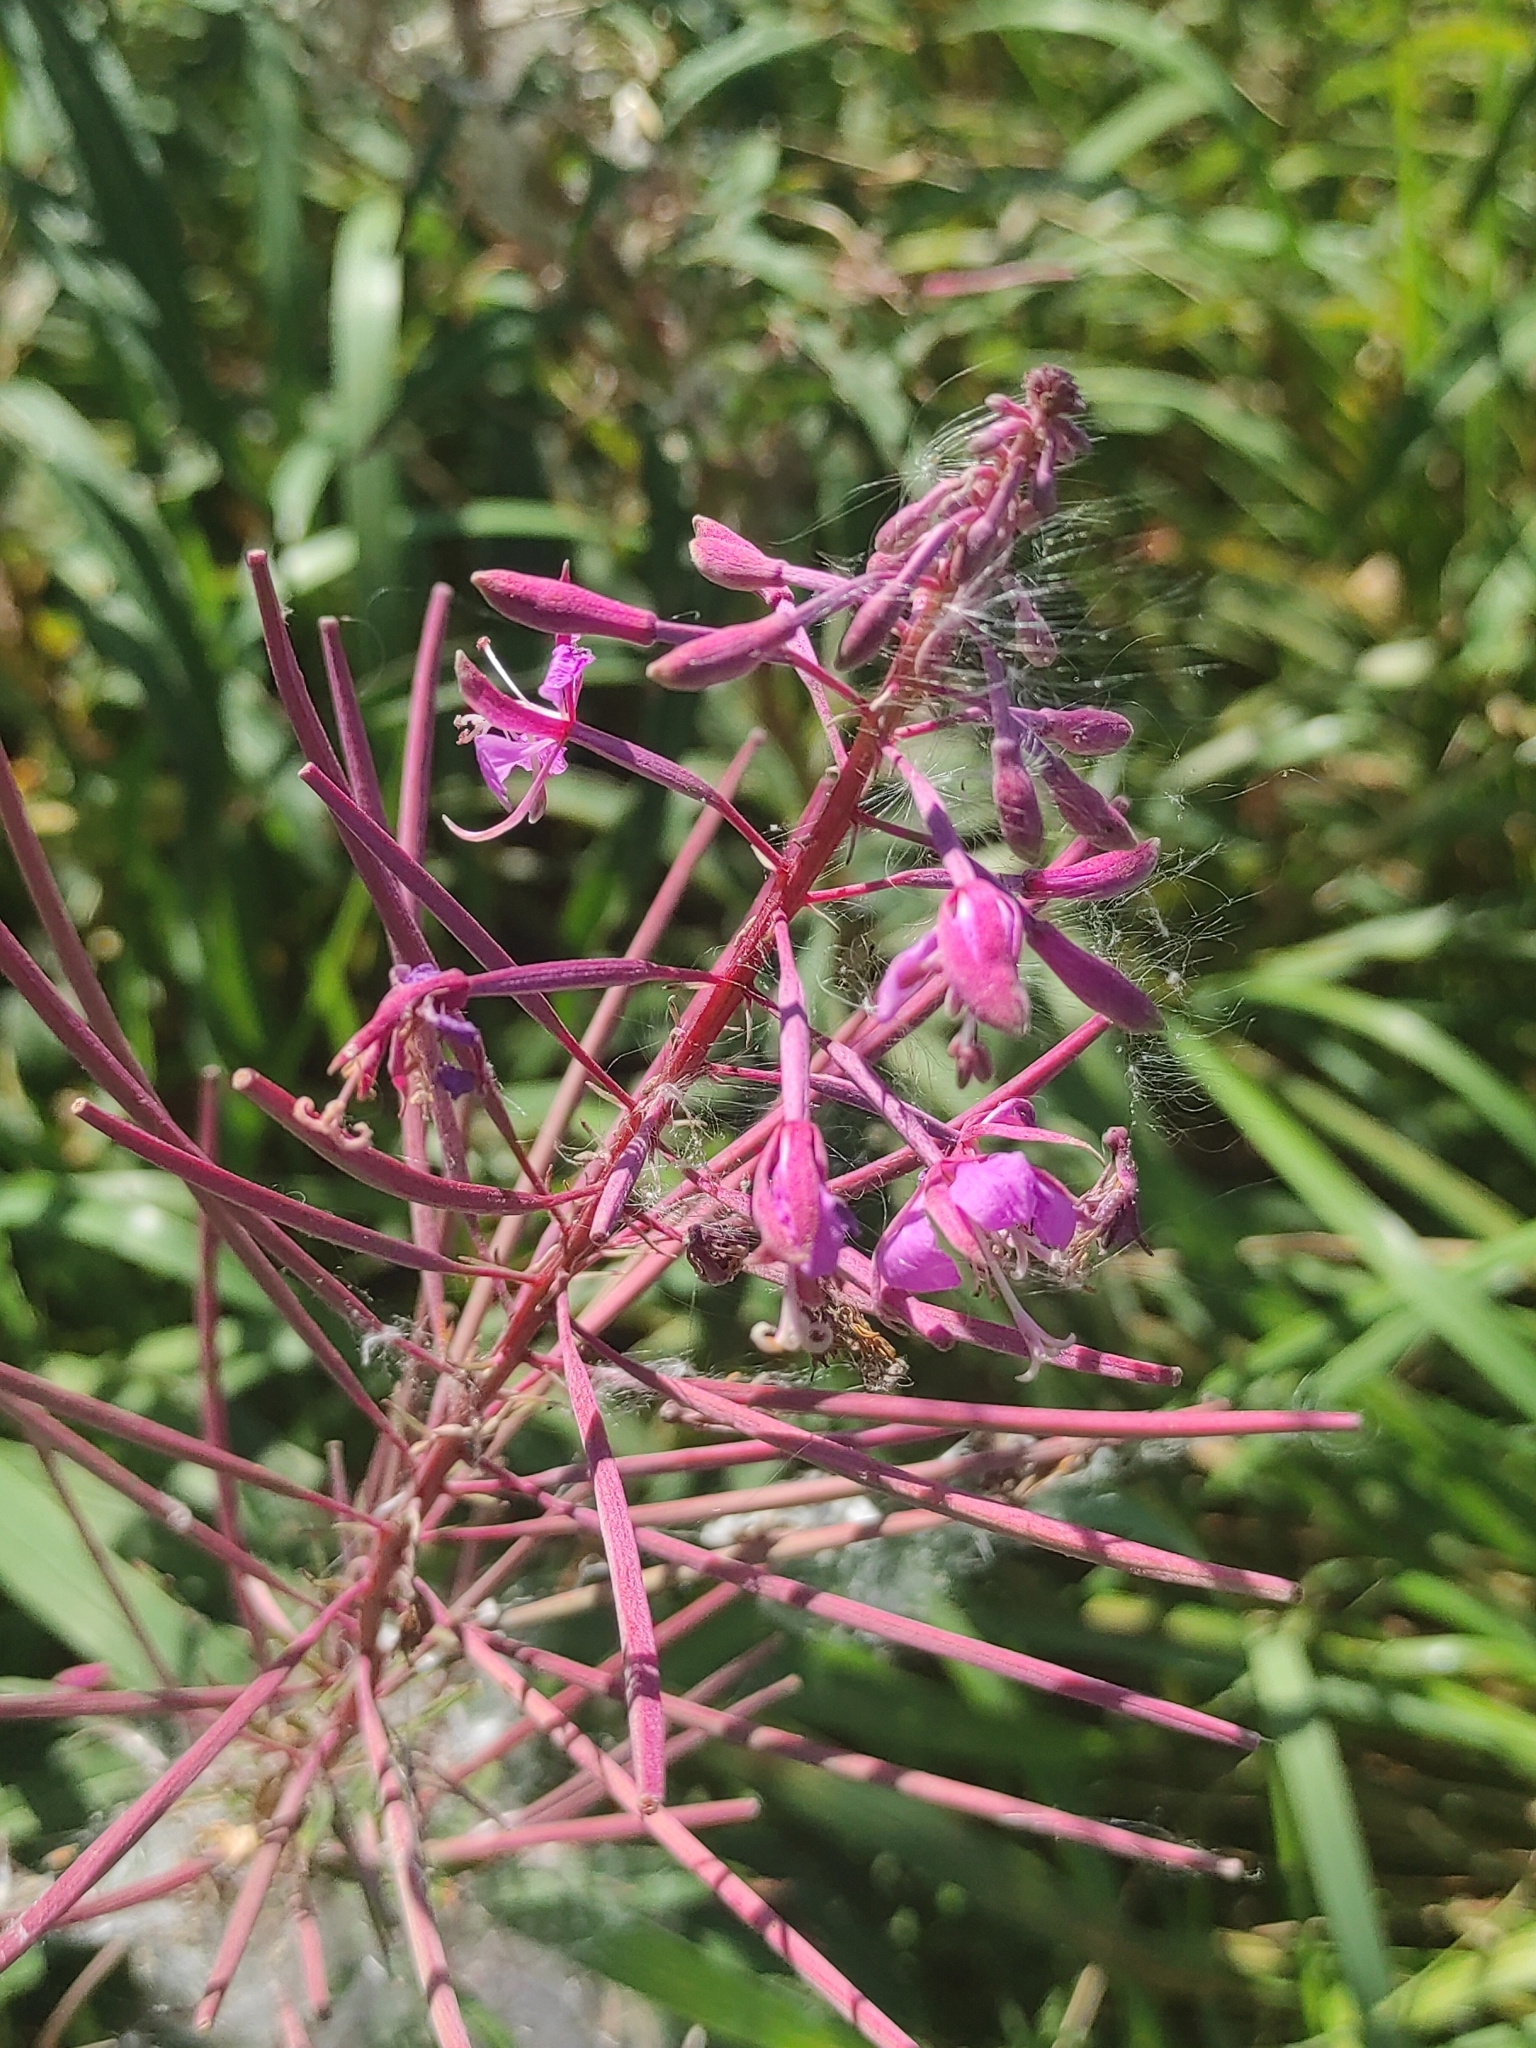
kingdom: Plantae
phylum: Tracheophyta
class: Magnoliopsida
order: Myrtales
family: Onagraceae
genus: Chamaenerion
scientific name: Chamaenerion angustifolium
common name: Fireweed
